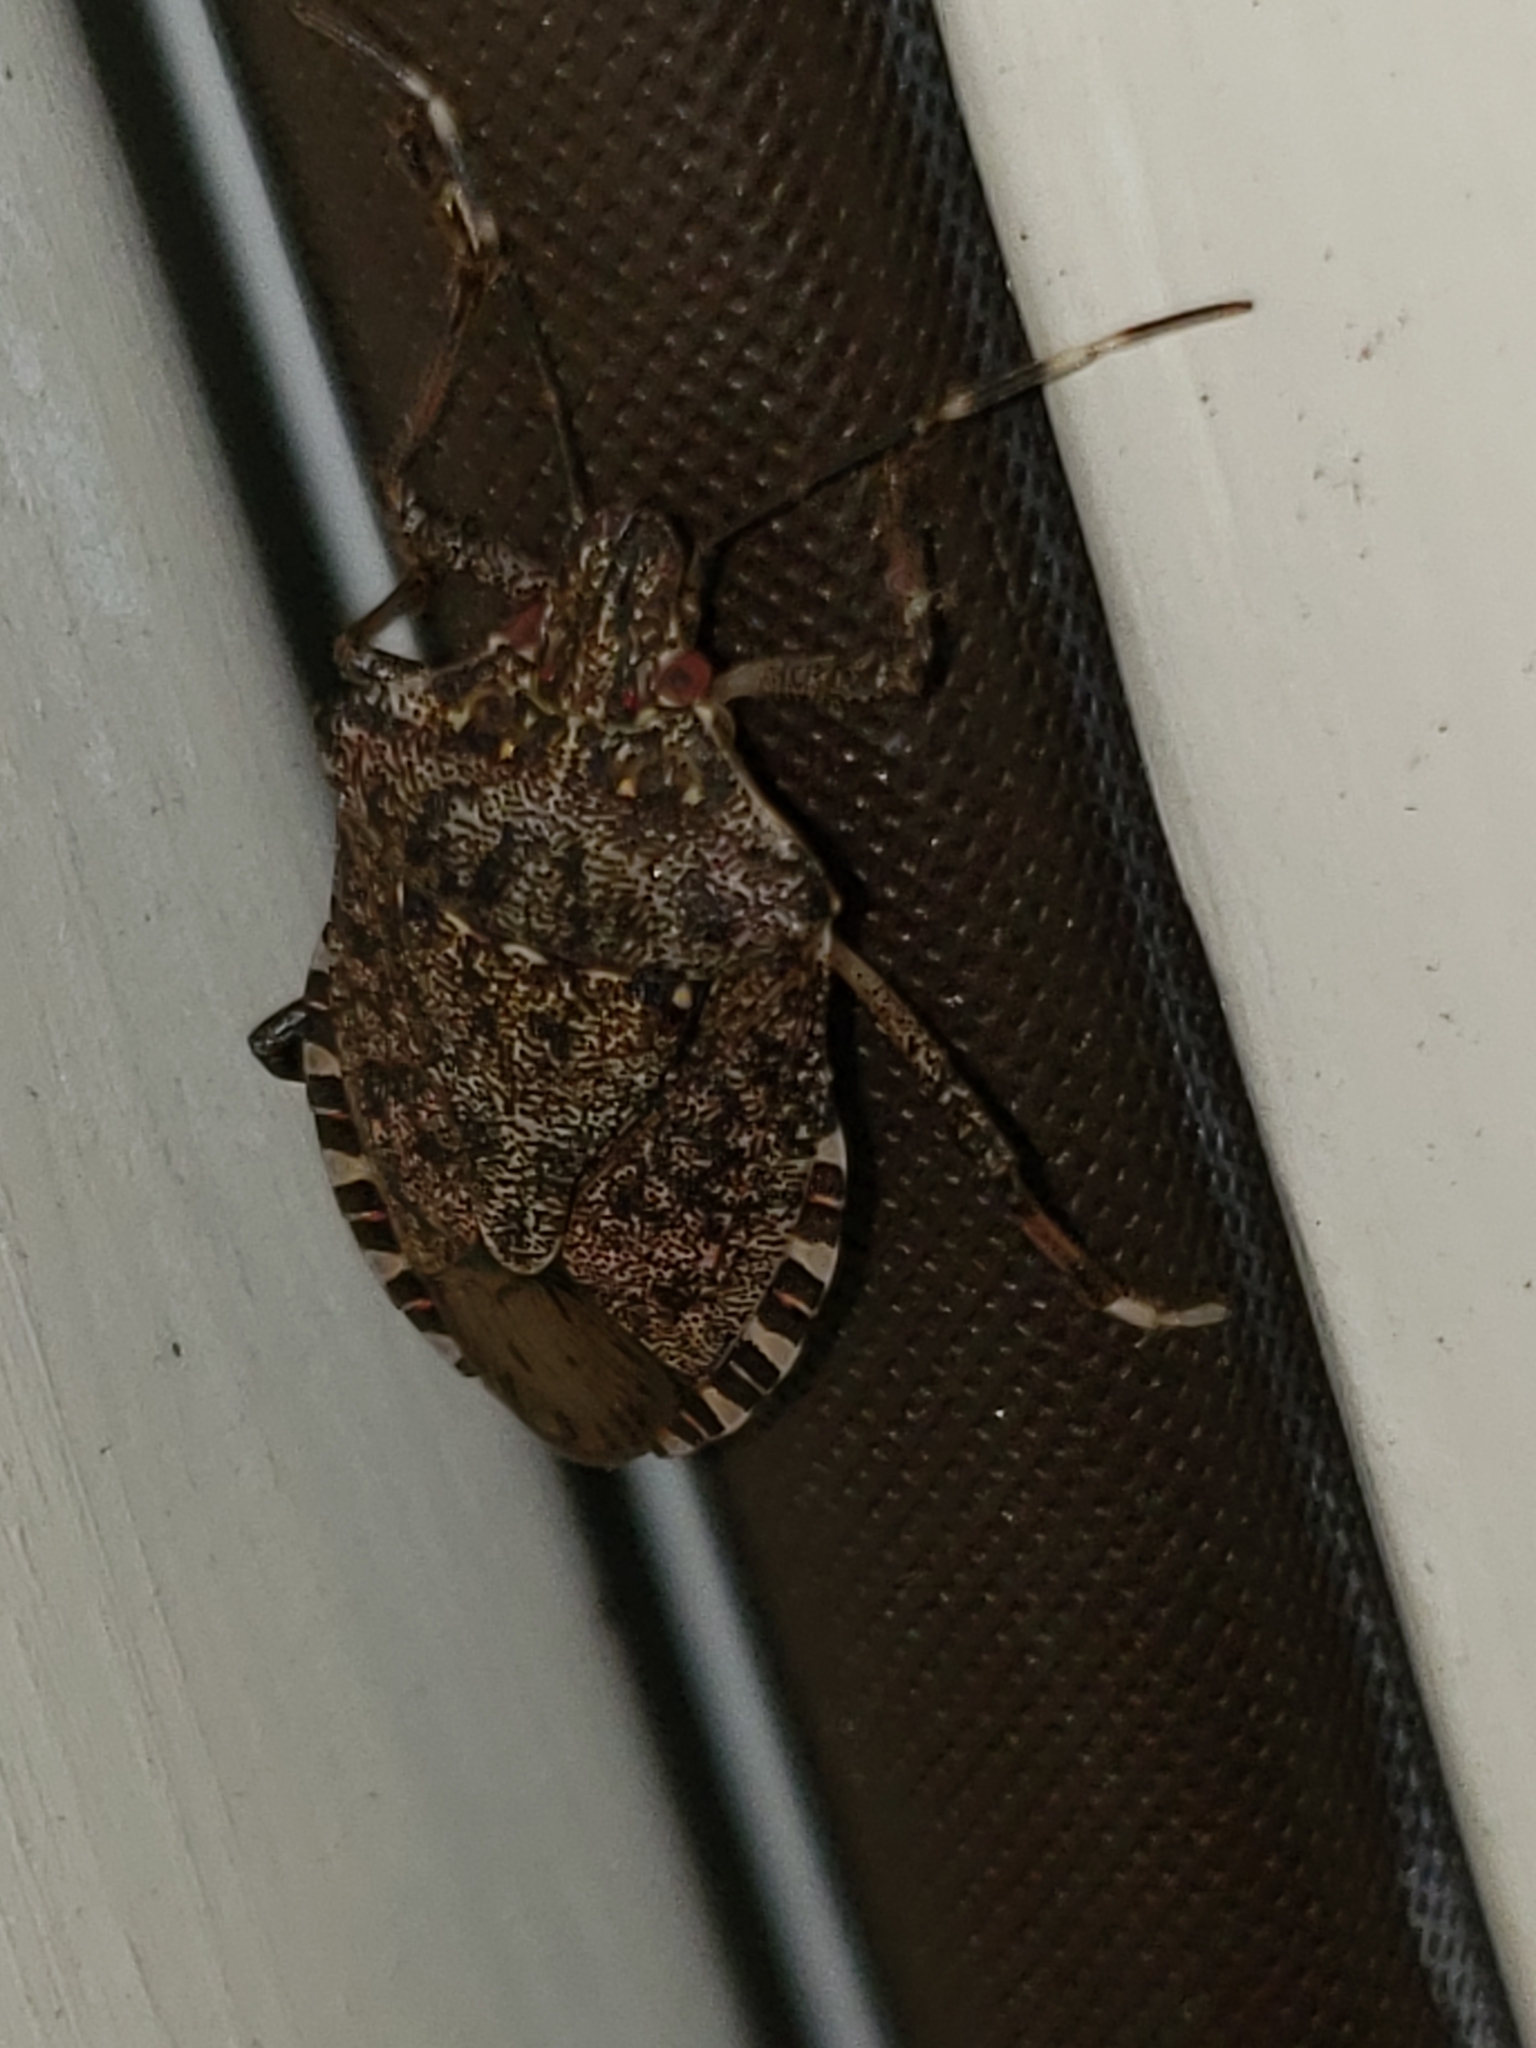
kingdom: Animalia
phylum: Arthropoda
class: Insecta
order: Hemiptera
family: Pentatomidae
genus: Halyomorpha
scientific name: Halyomorpha halys
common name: Brown marmorated stink bug
